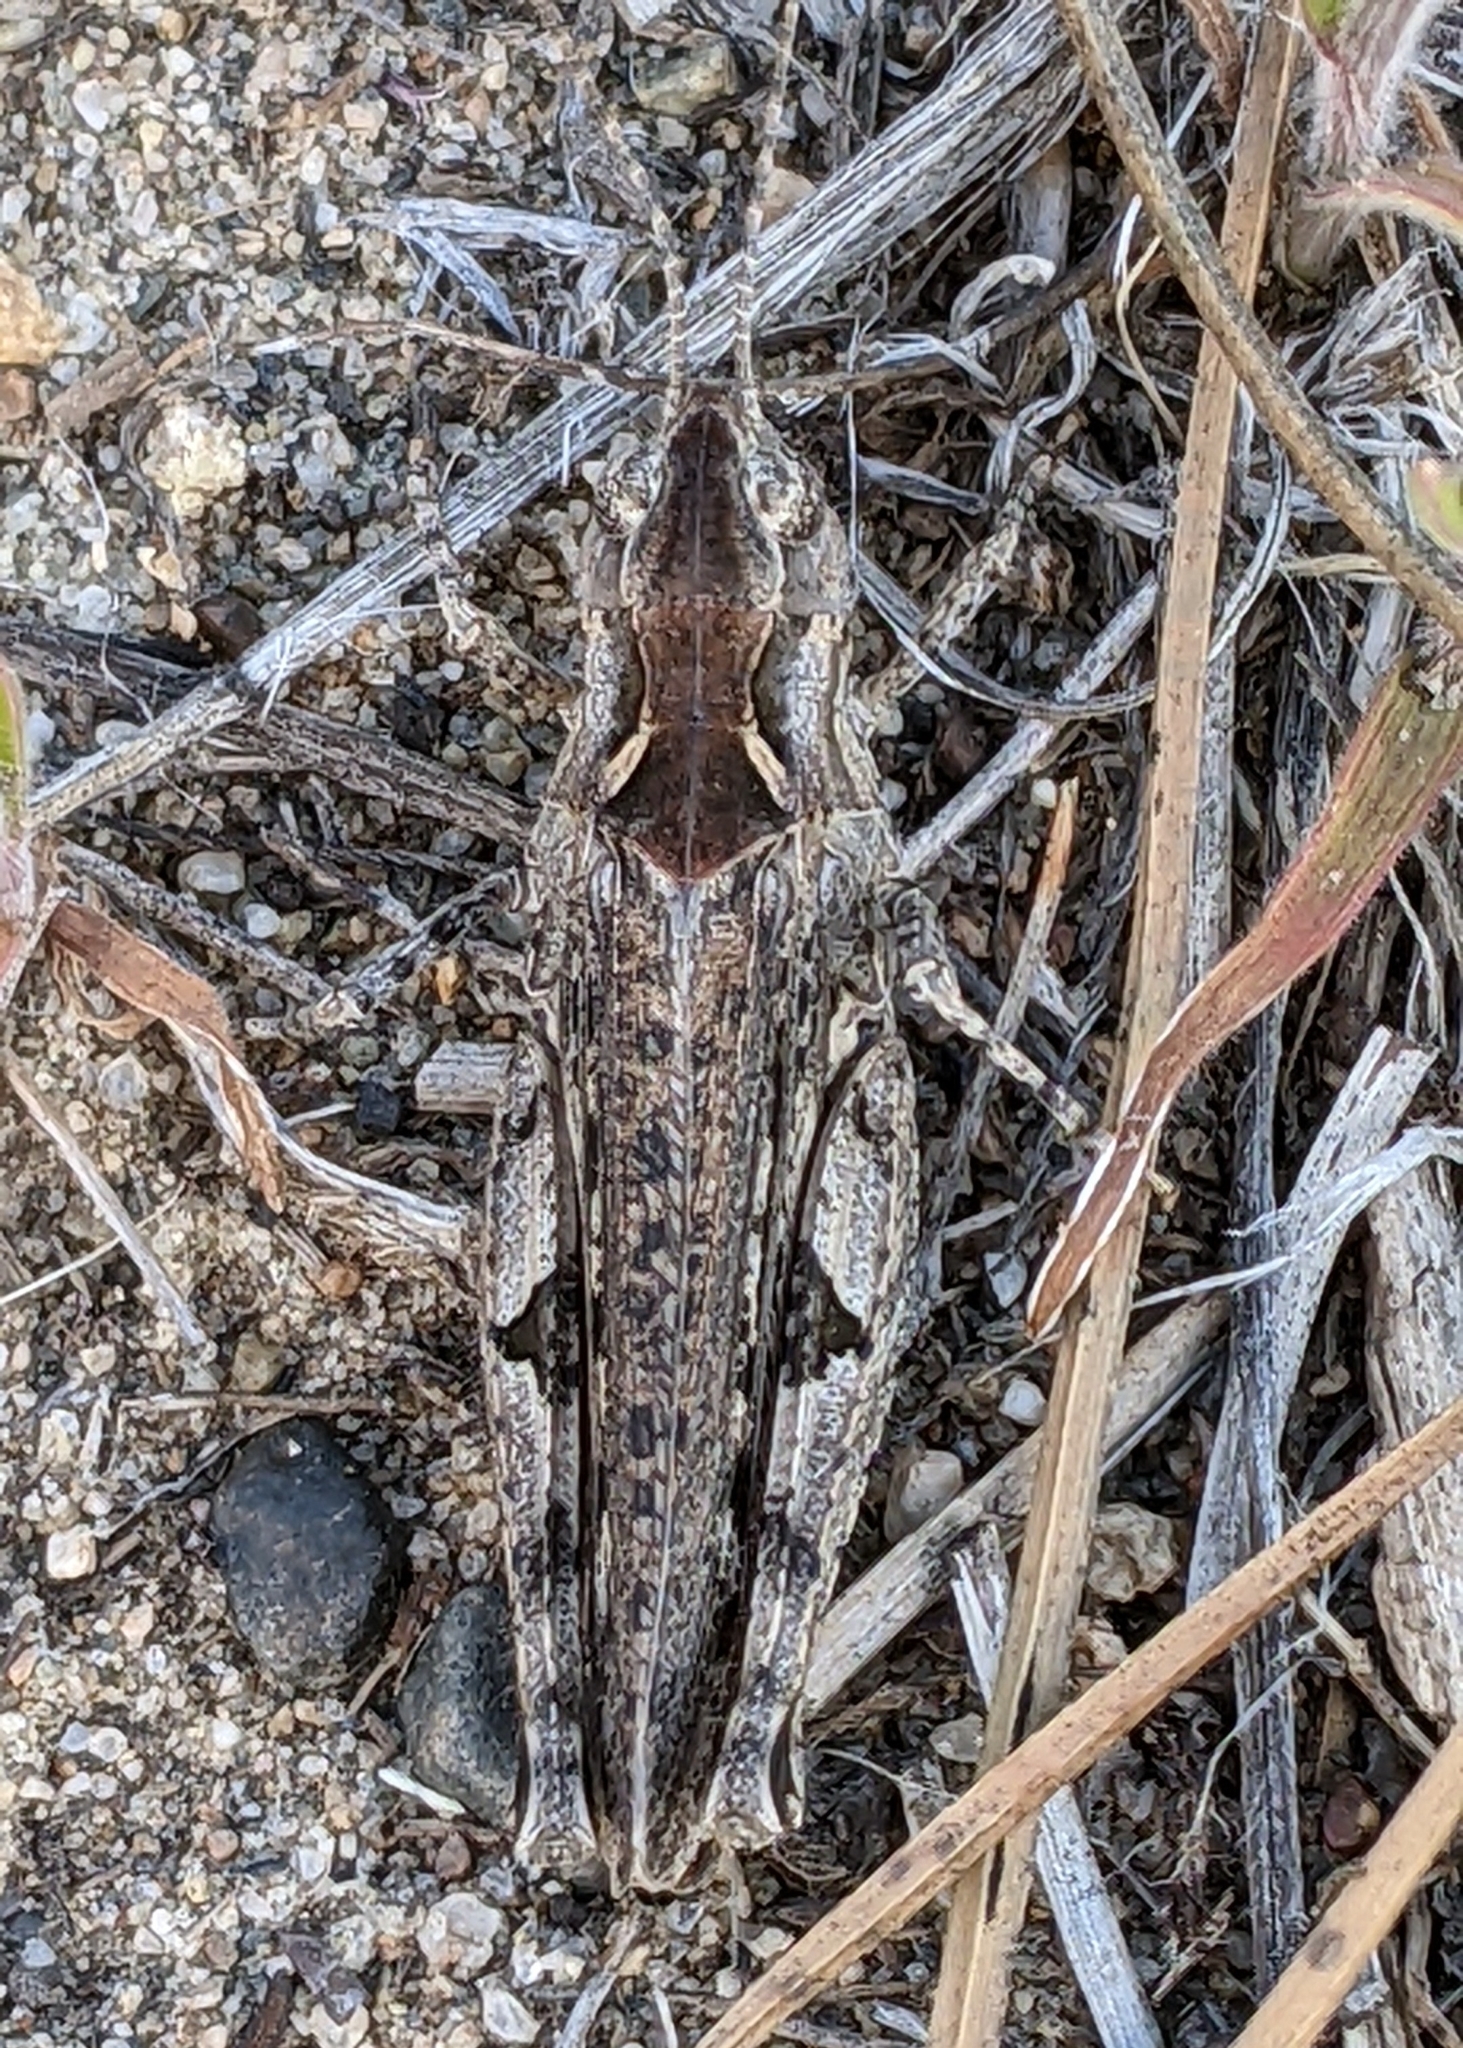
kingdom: Animalia
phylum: Arthropoda
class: Insecta
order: Orthoptera
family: Acrididae
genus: Psoloessa
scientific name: Psoloessa delicatula
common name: Brown-spotted range grasshopper
